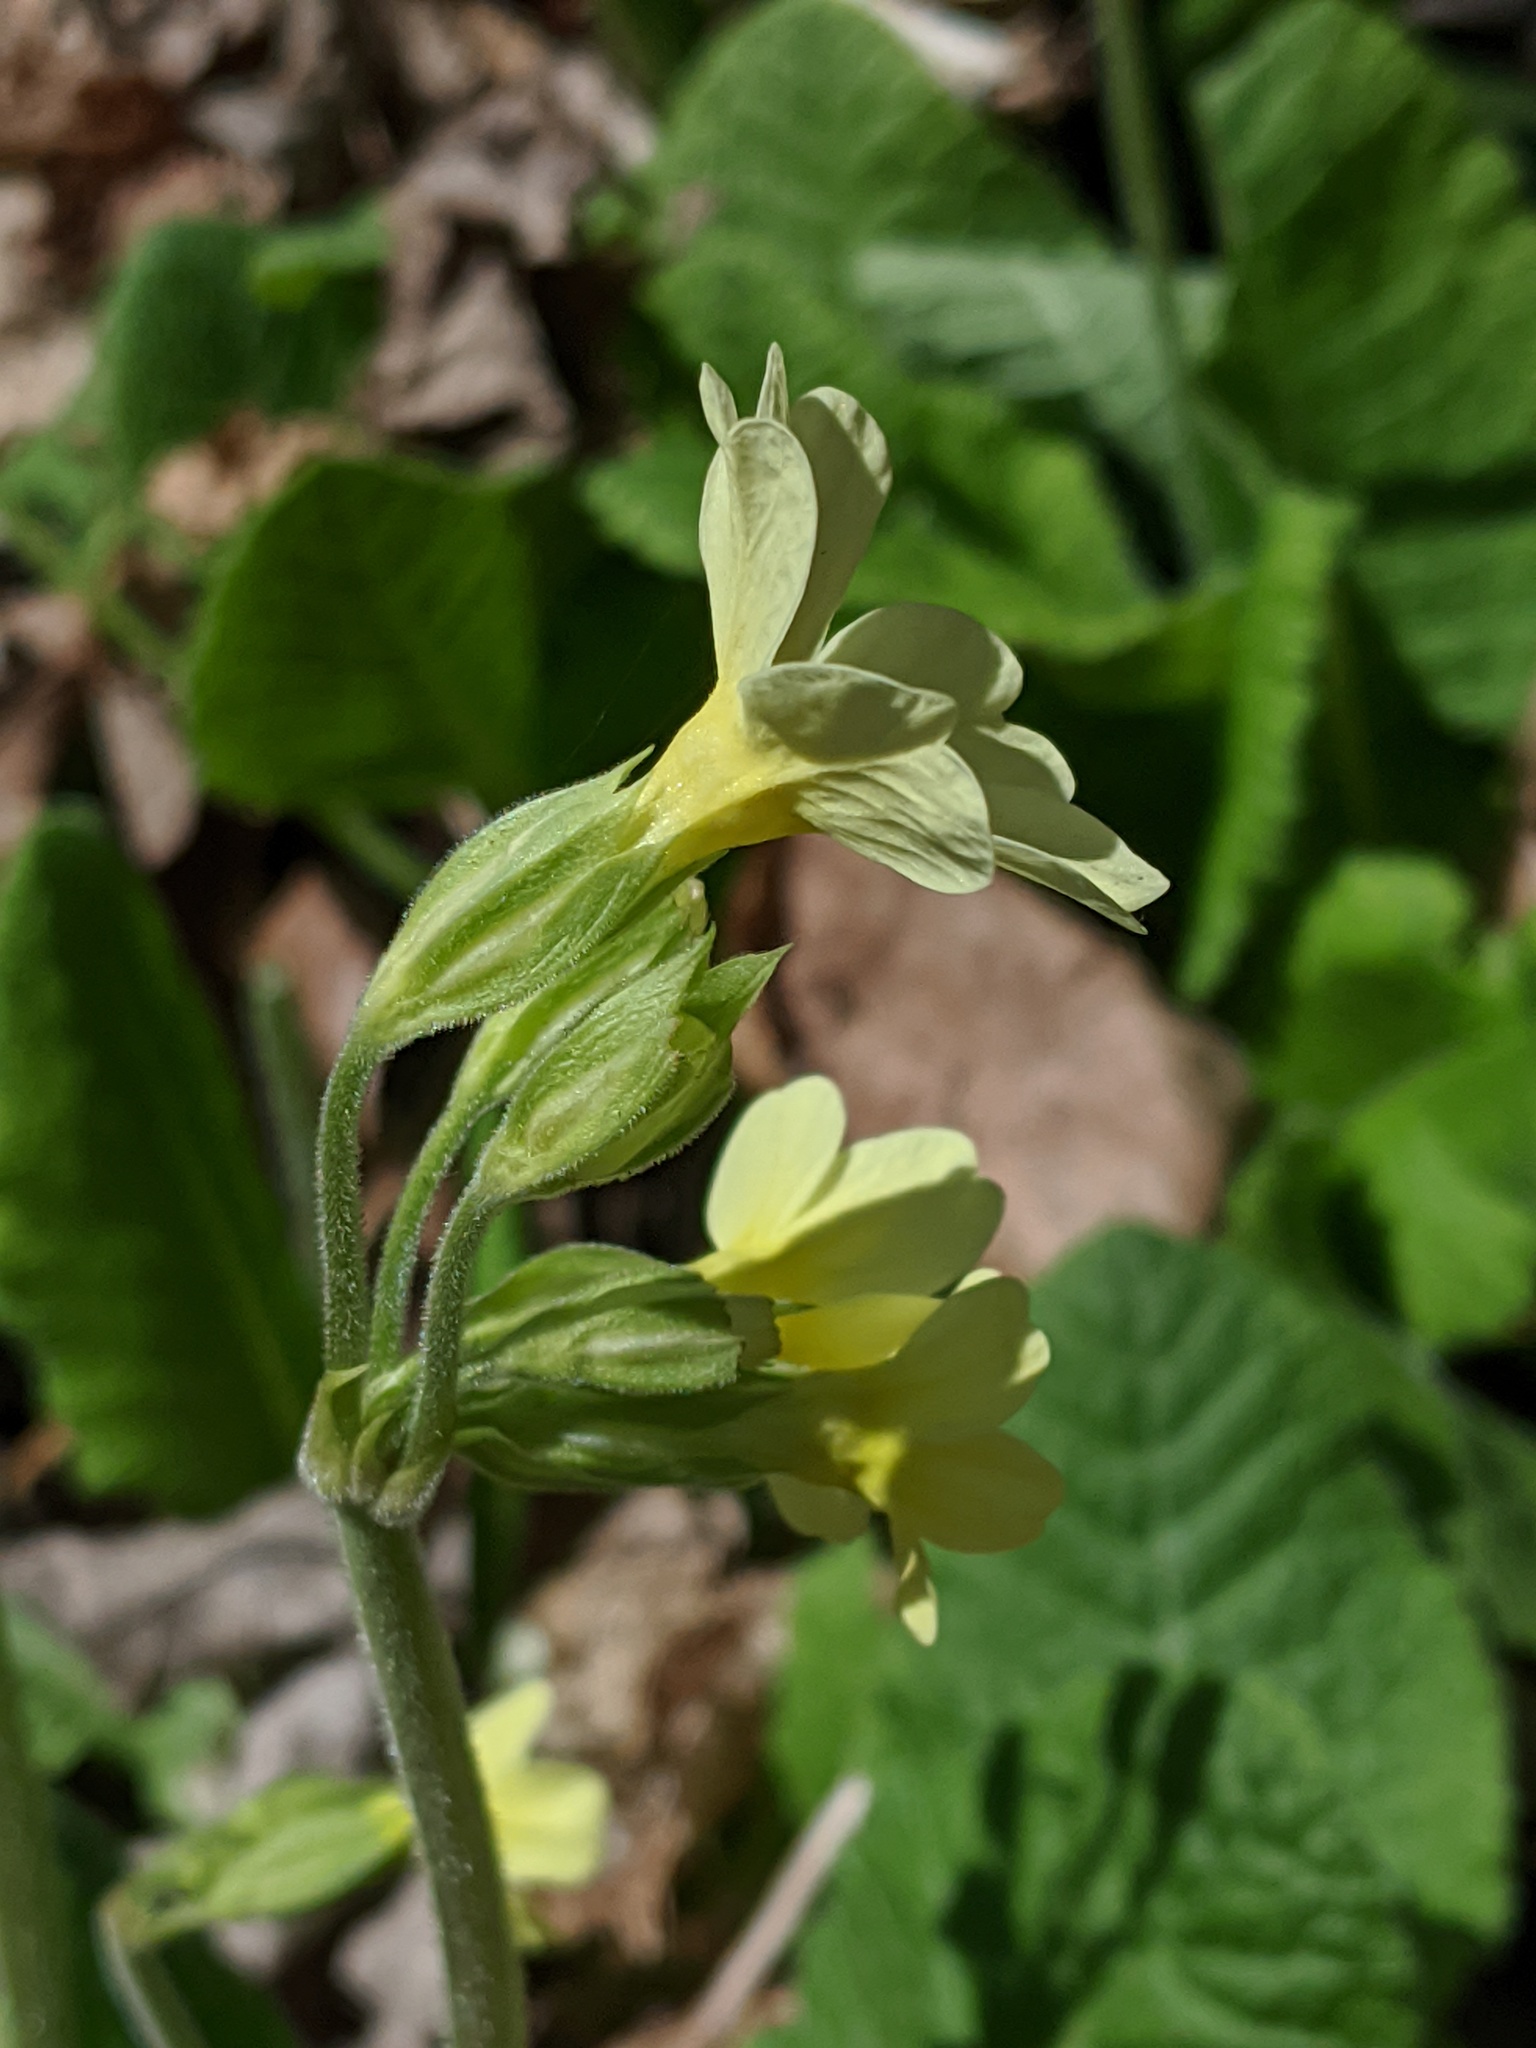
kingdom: Plantae
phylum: Tracheophyta
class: Magnoliopsida
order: Ericales
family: Primulaceae
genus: Primula
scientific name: Primula media
